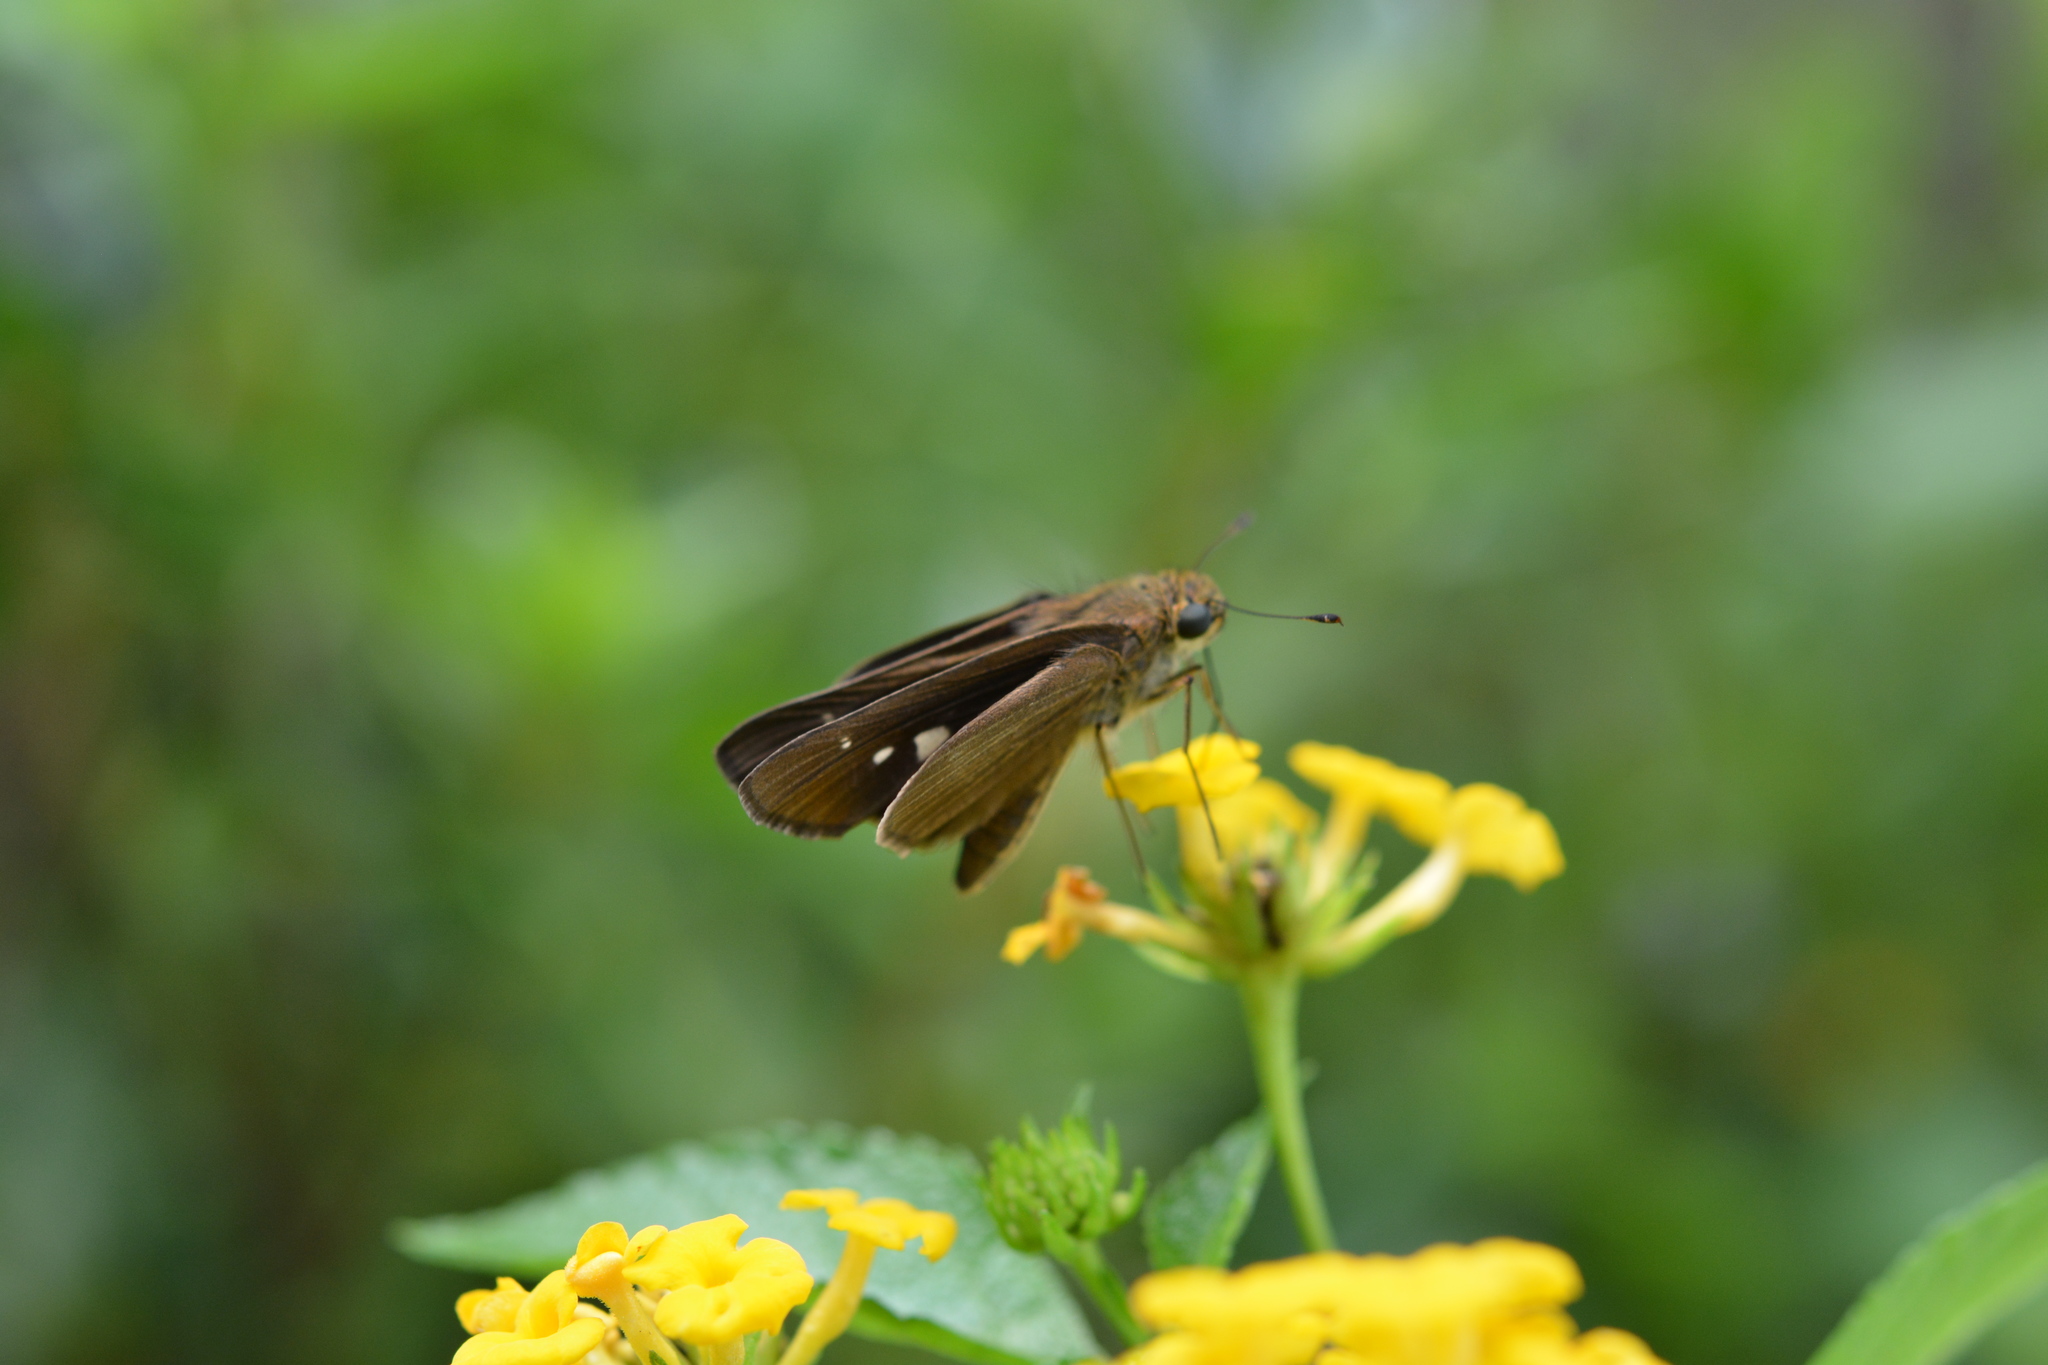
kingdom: Animalia
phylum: Arthropoda
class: Insecta
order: Lepidoptera
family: Hesperiidae
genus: Panoquina
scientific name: Panoquina ocola
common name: Ocola skipper
